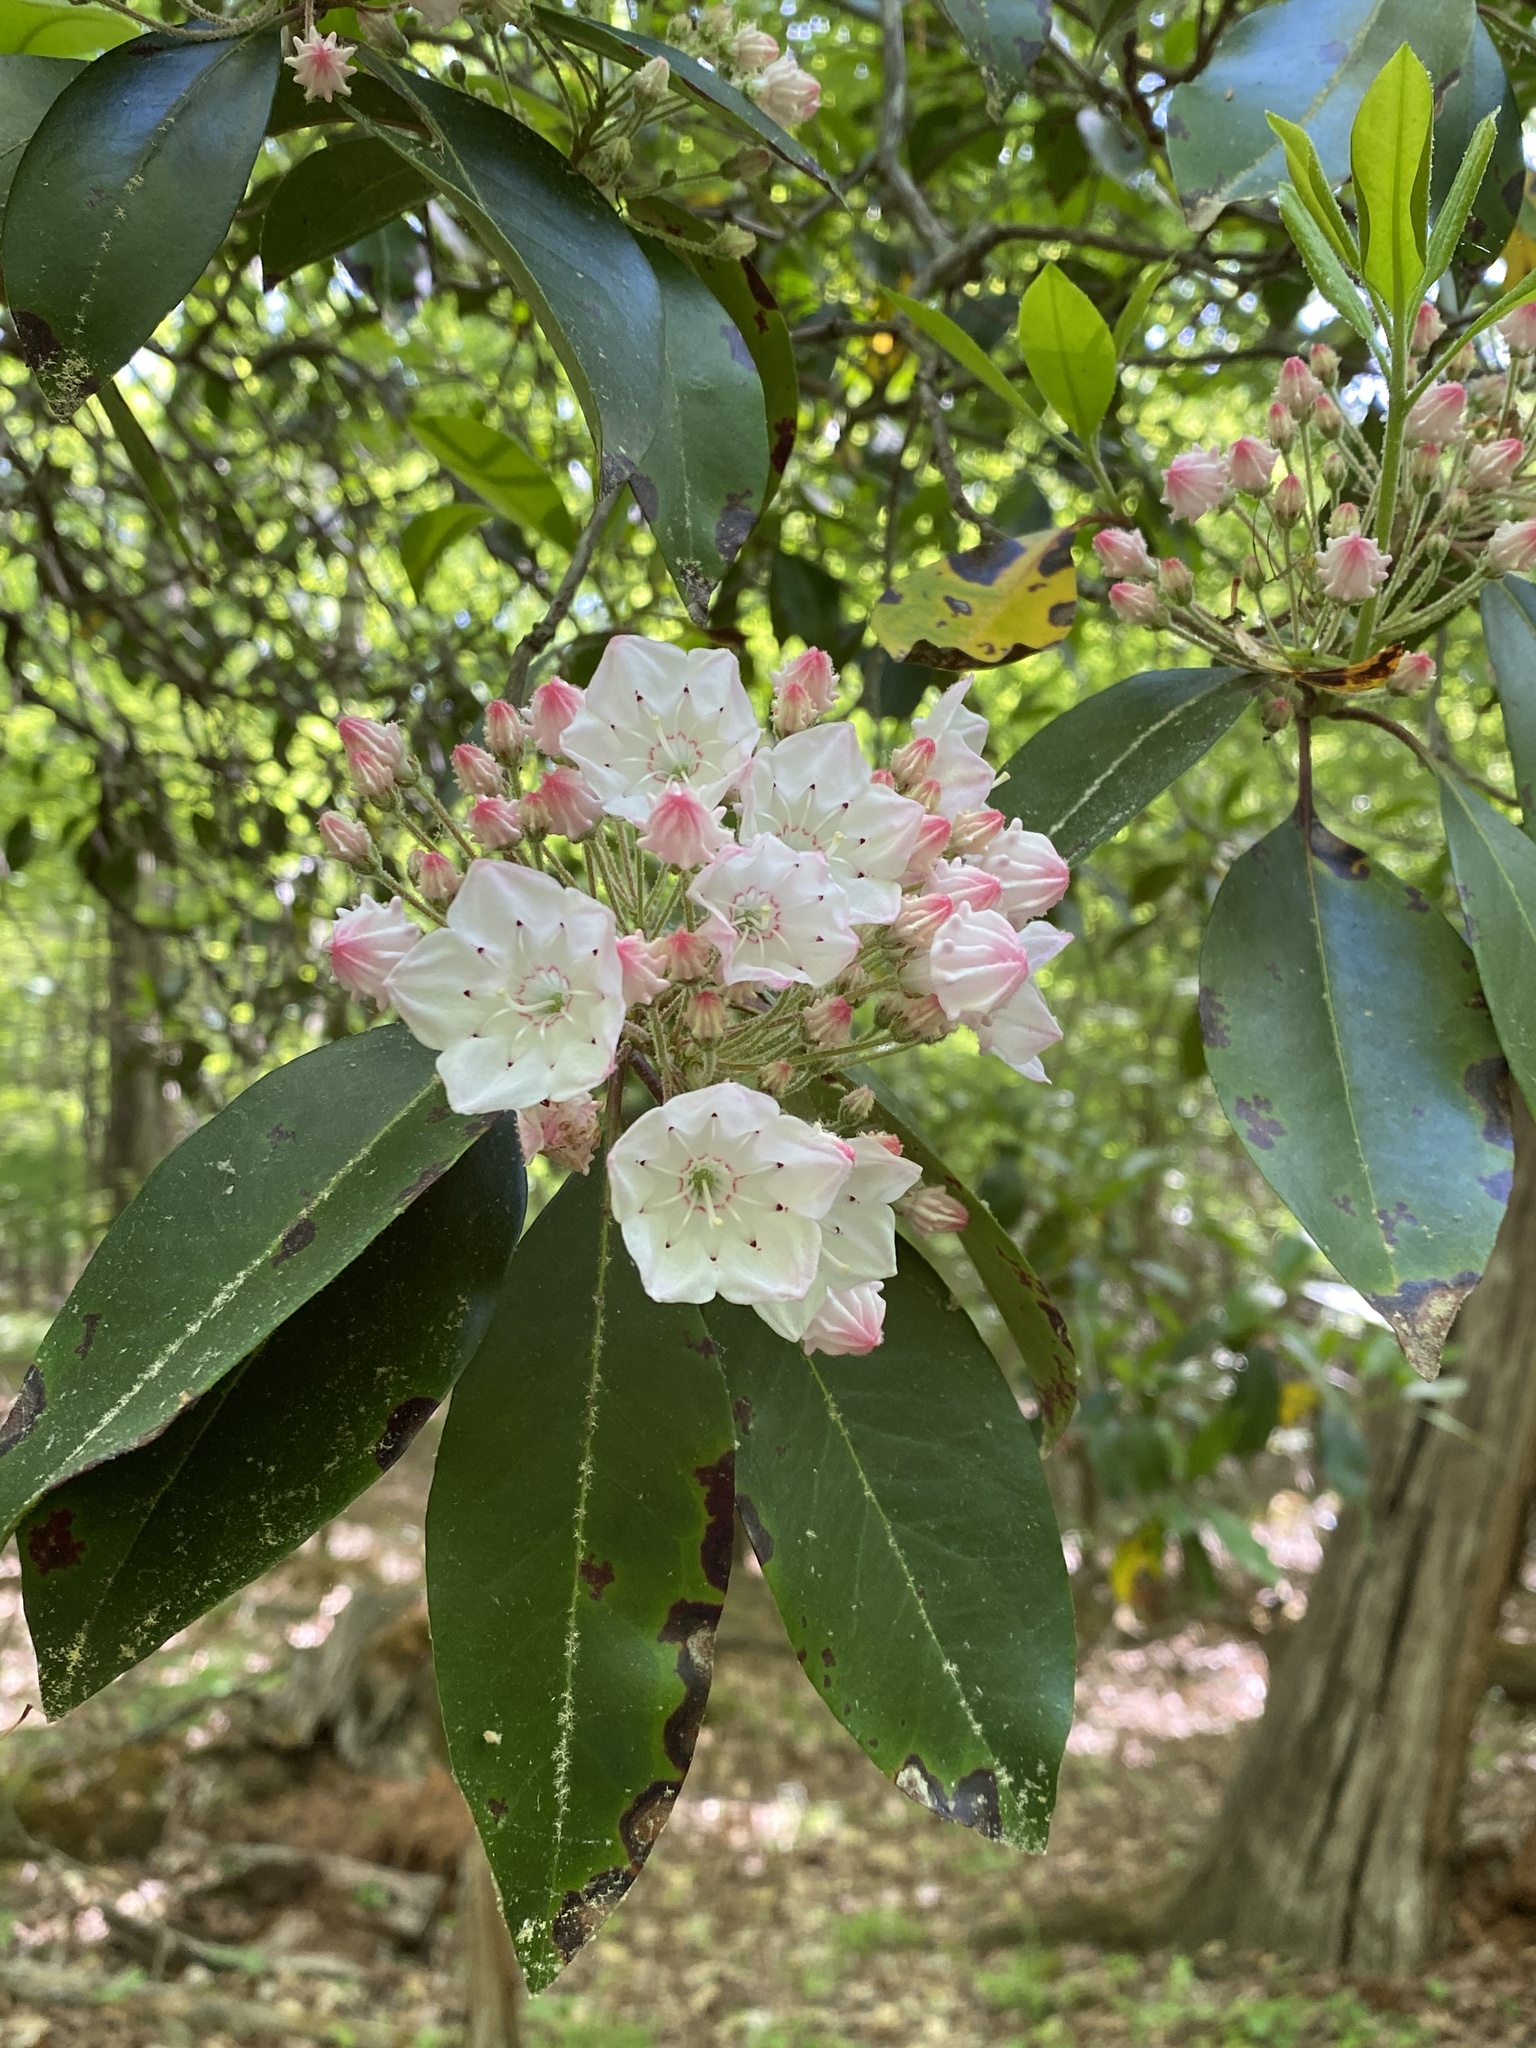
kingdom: Plantae
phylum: Tracheophyta
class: Magnoliopsida
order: Ericales
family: Ericaceae
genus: Kalmia
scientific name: Kalmia latifolia
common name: Mountain-laurel
